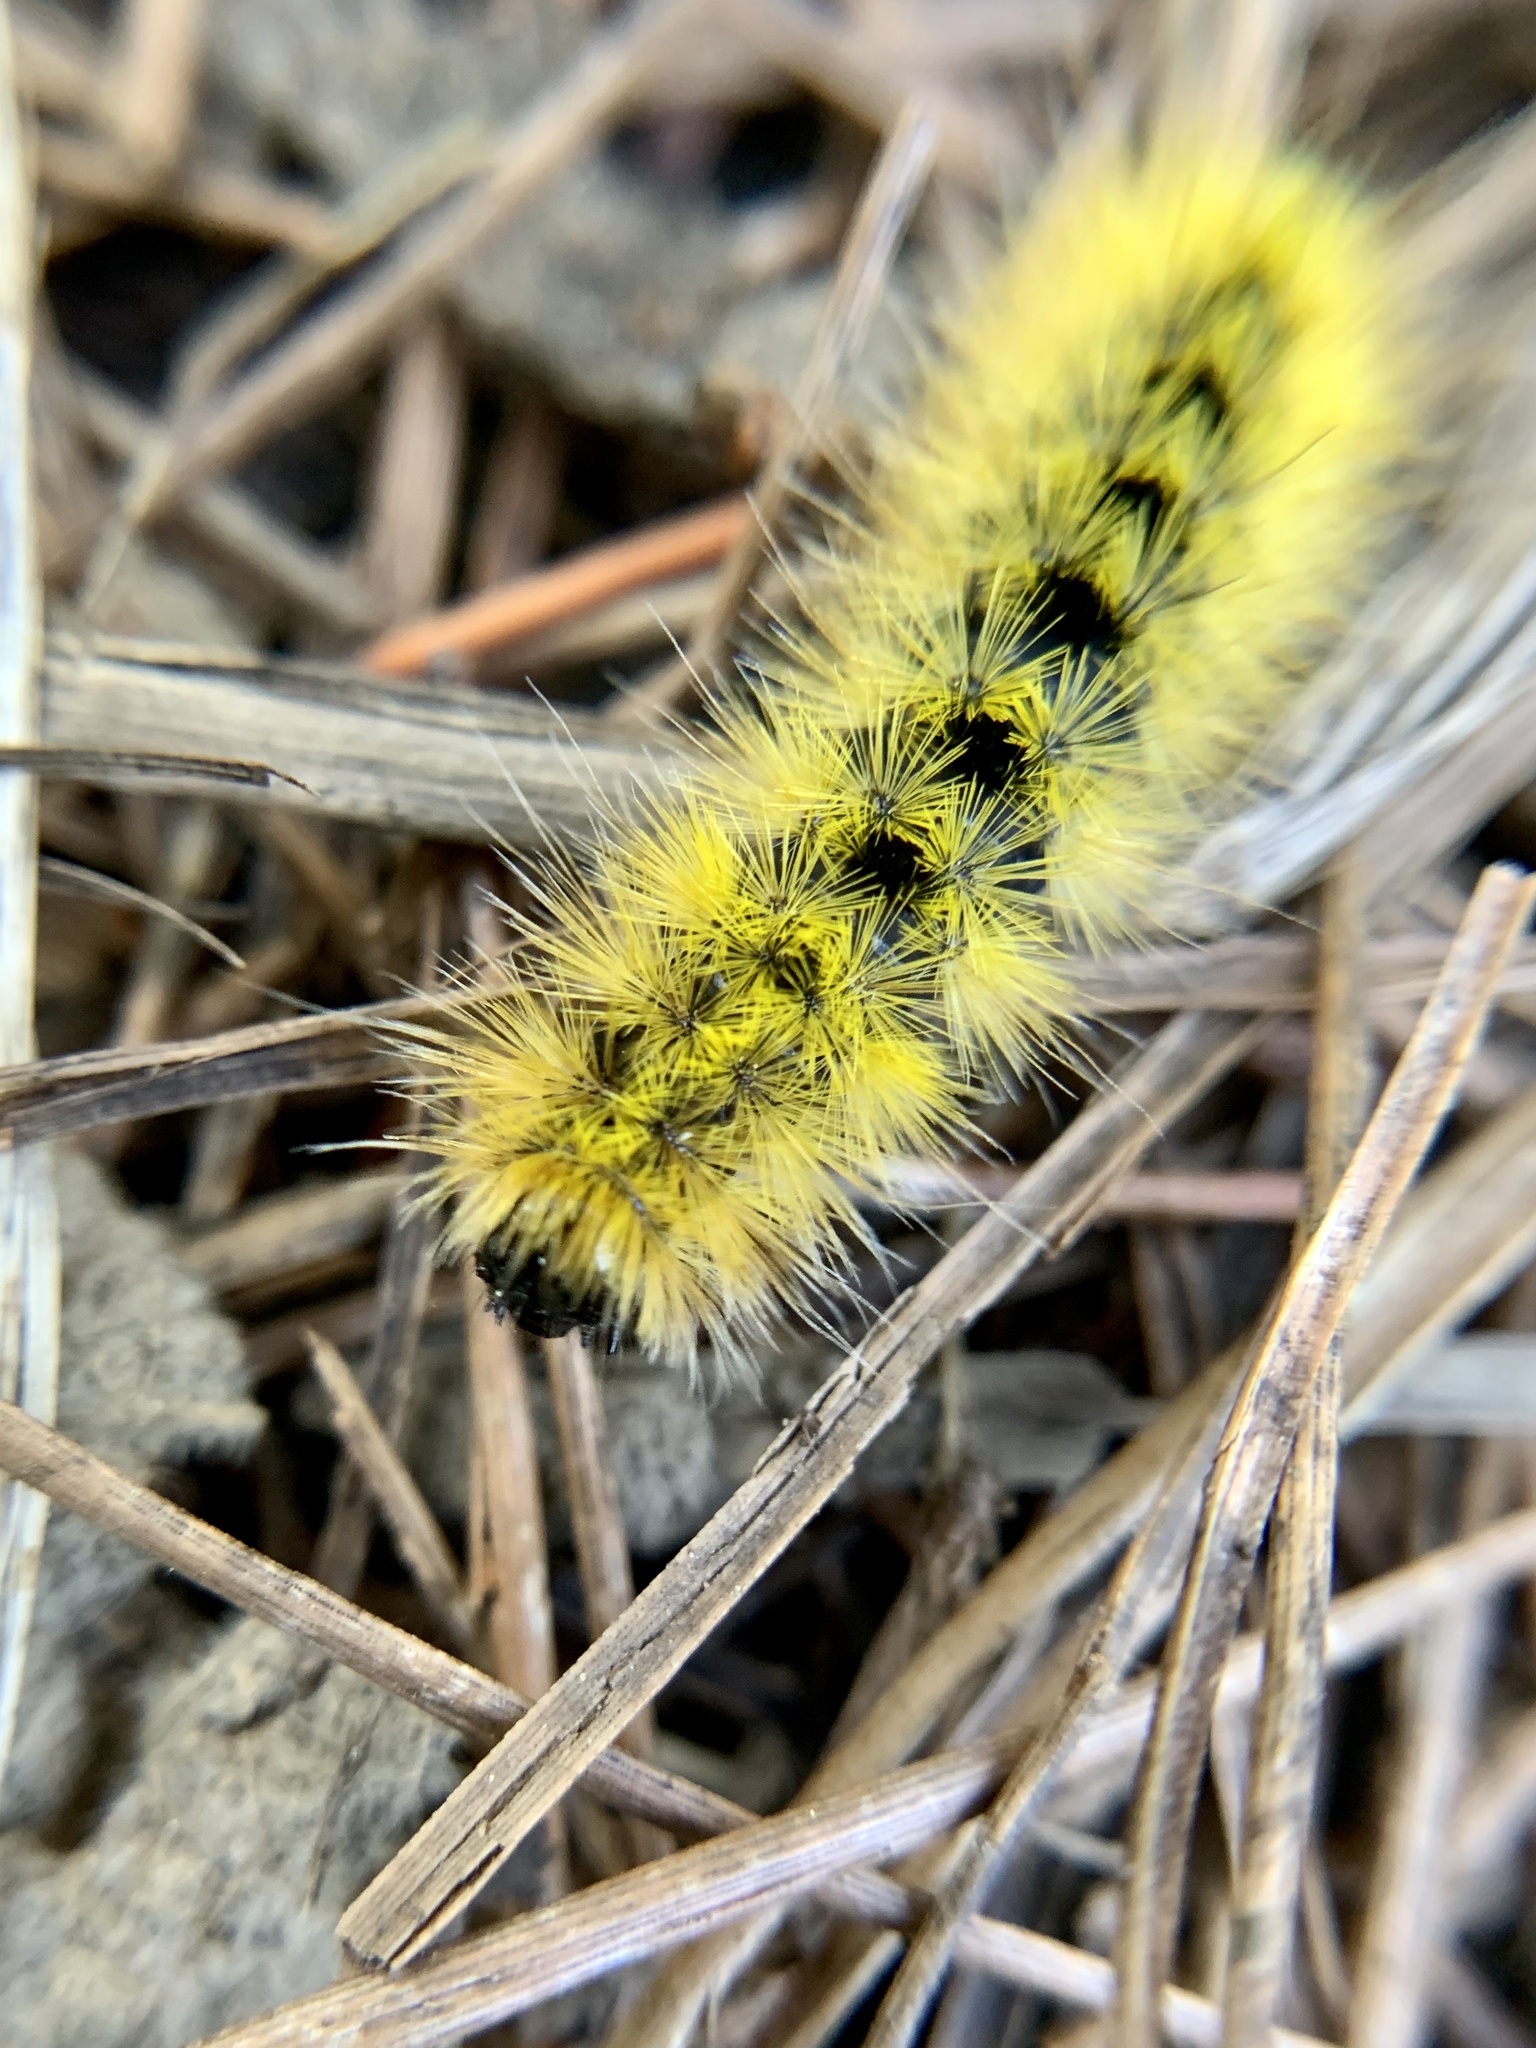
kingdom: Animalia
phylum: Arthropoda
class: Insecta
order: Lepidoptera
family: Erebidae
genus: Lophocampa
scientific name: Lophocampa argentata
